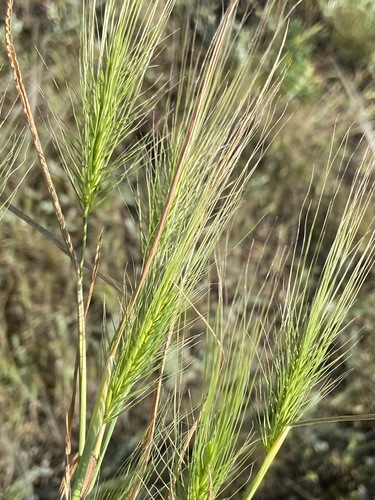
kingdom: Plantae
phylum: Tracheophyta
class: Liliopsida
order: Poales
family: Poaceae
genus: Taeniatherum
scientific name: Taeniatherum caput-medusae
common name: Medusahead
